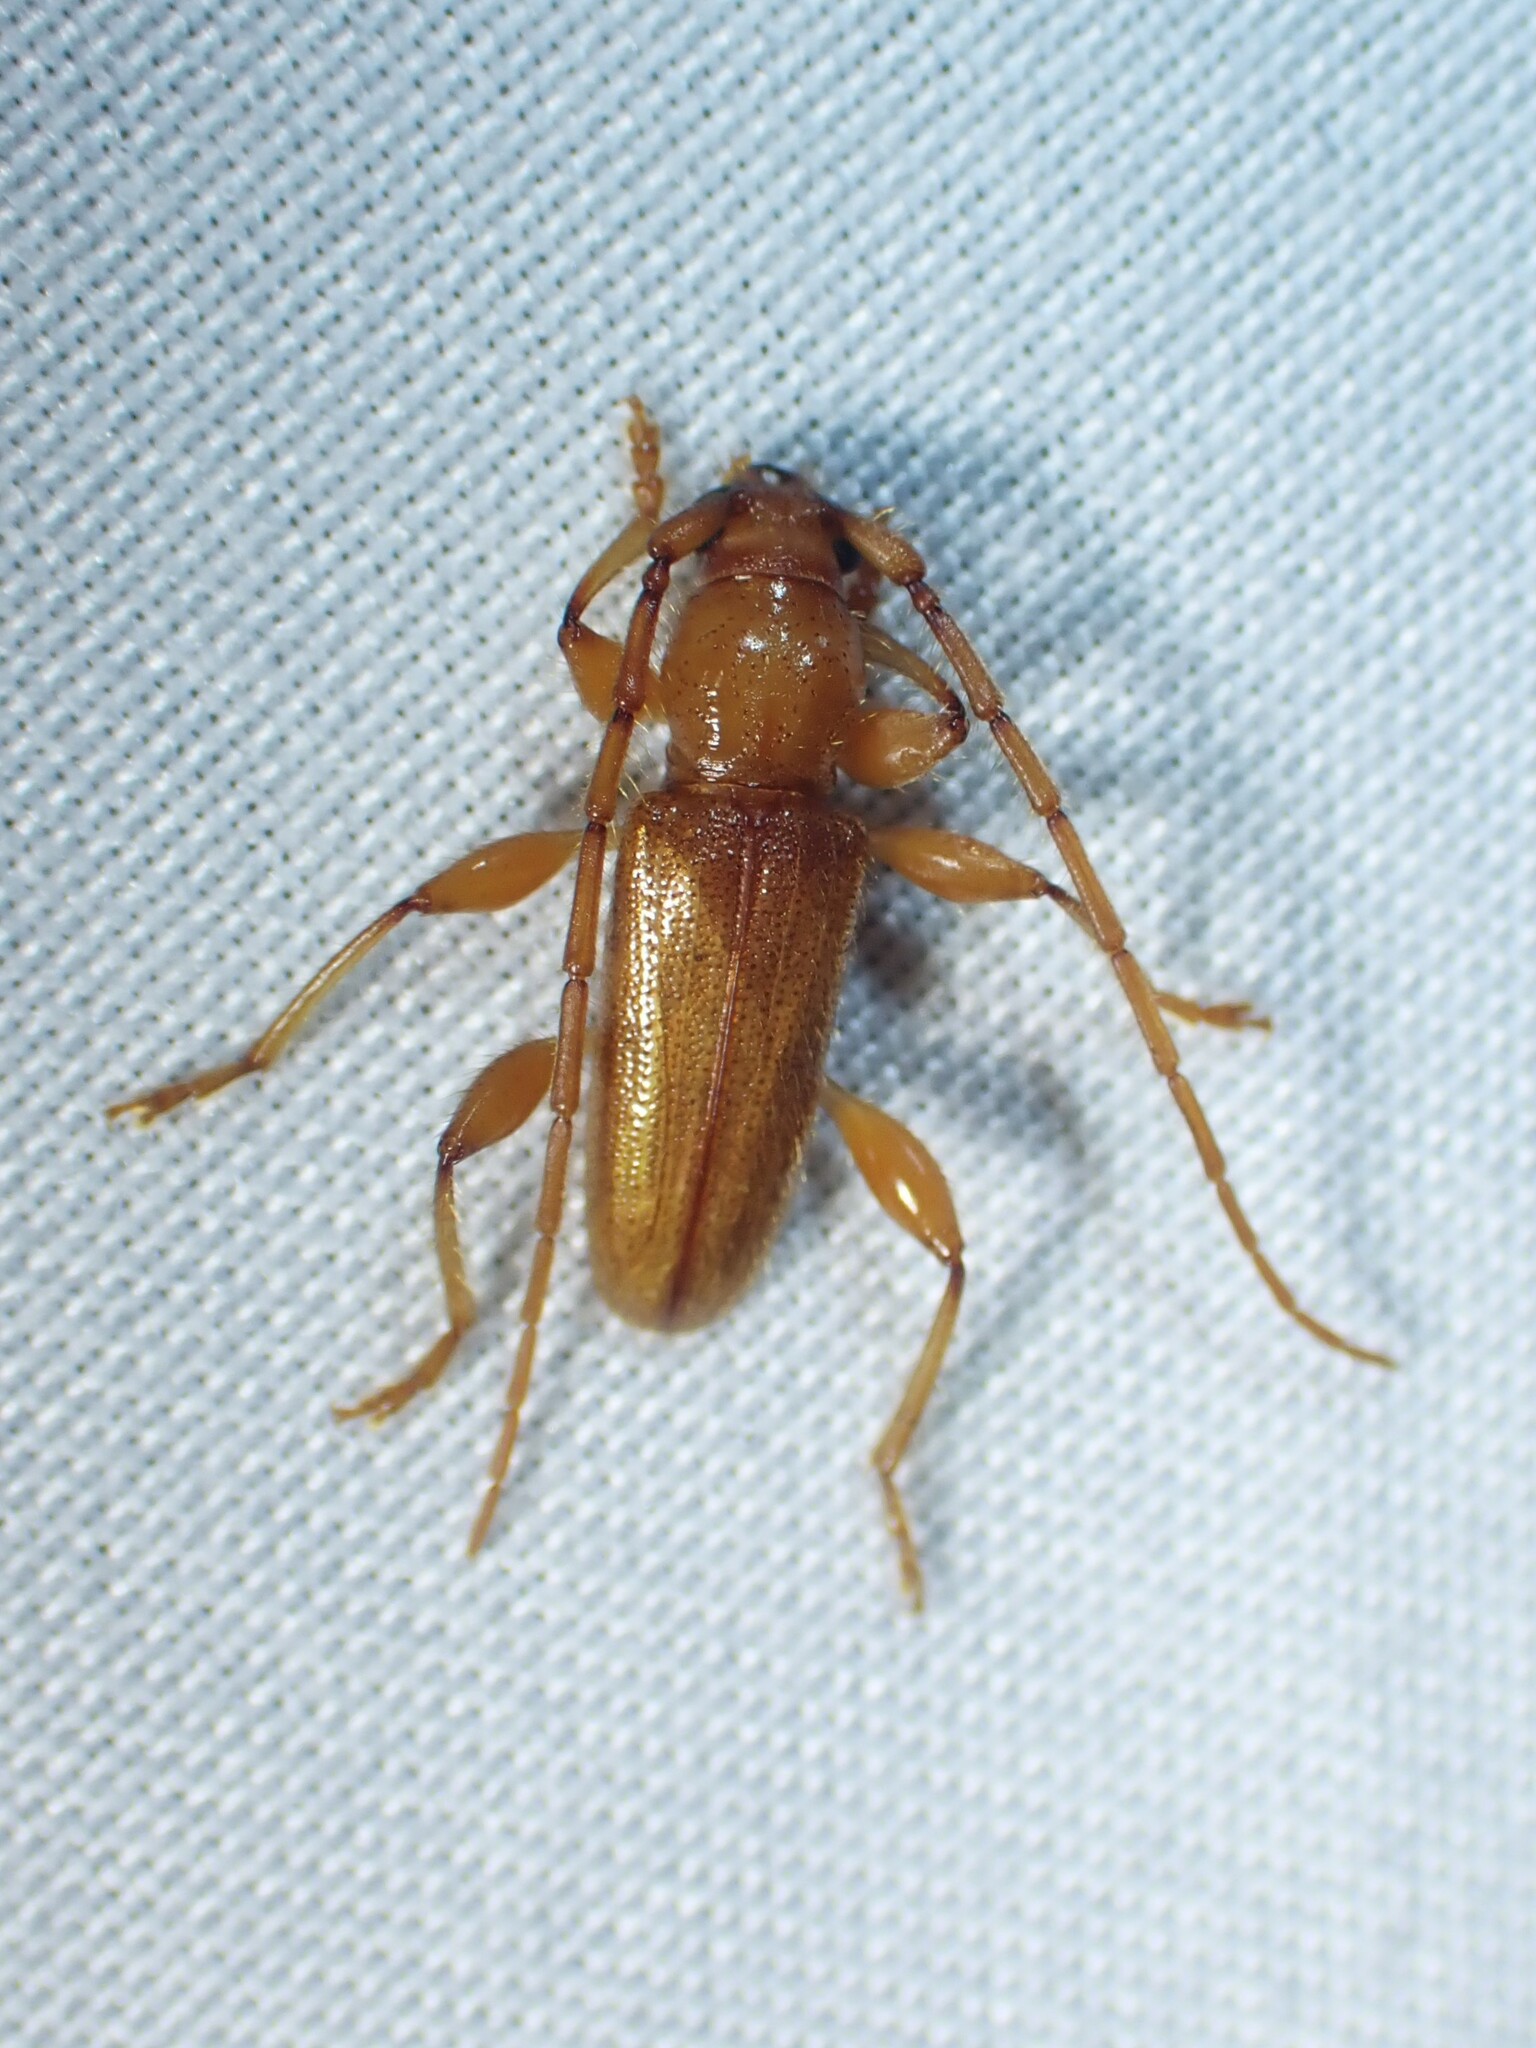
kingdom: Animalia
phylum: Arthropoda
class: Insecta
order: Coleoptera
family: Cerambycidae
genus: Curtomerus
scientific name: Curtomerus flavus
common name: Curtomerus long-horned beetle
